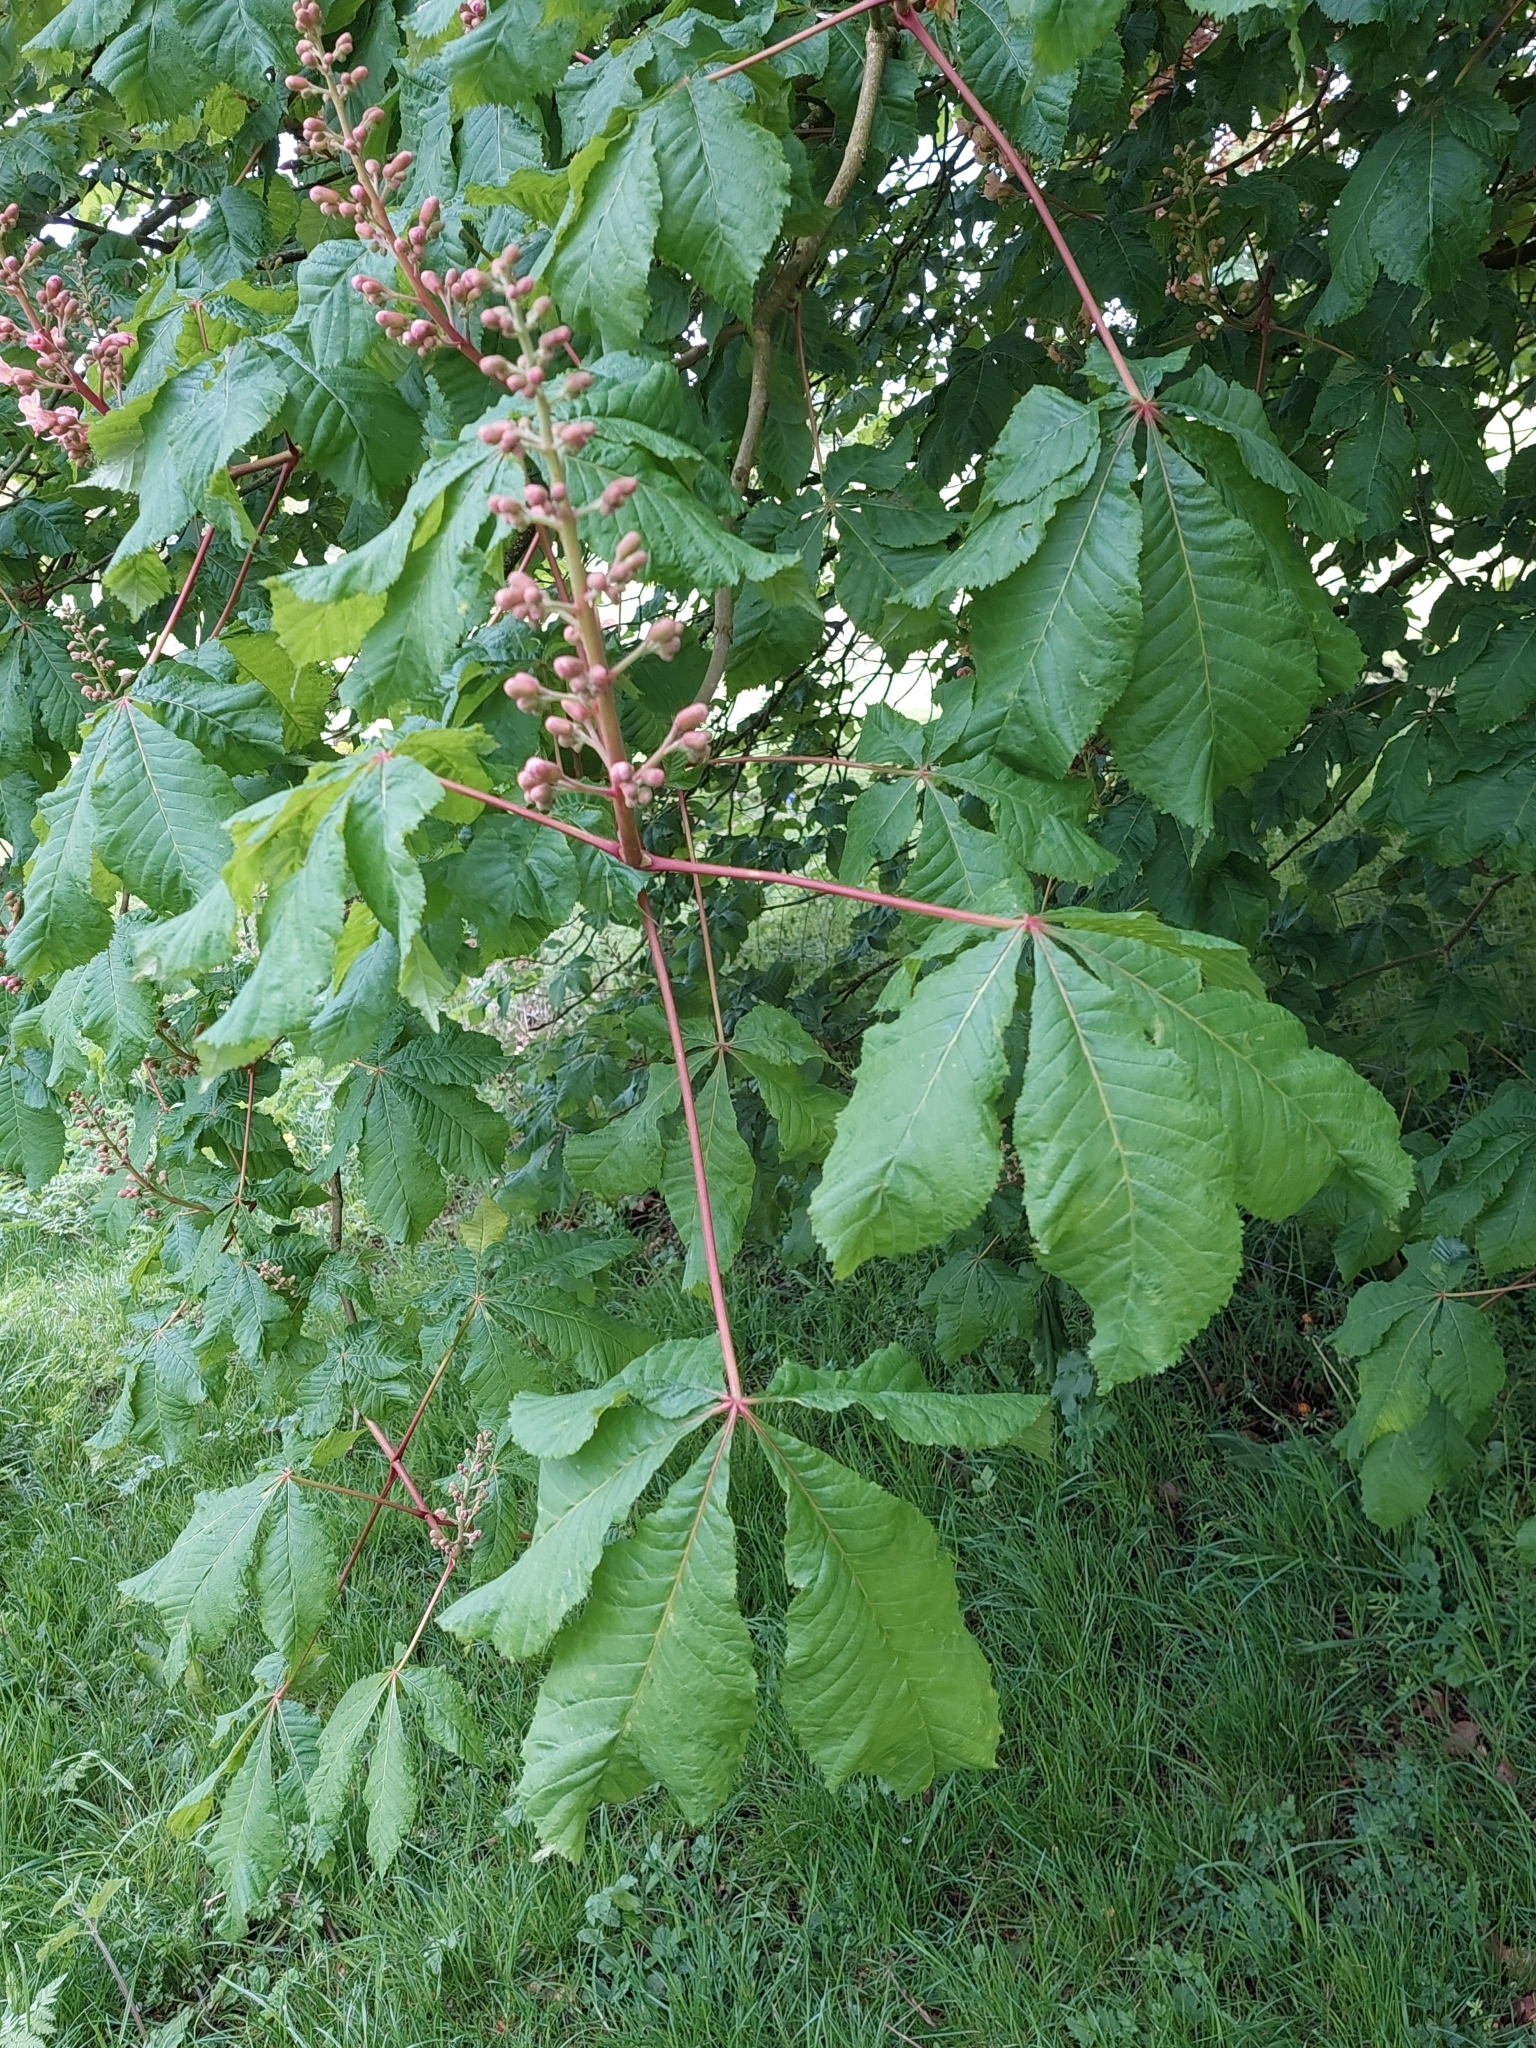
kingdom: Plantae
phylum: Tracheophyta
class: Magnoliopsida
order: Sapindales
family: Sapindaceae
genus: Aesculus
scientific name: Aesculus hippocastanum
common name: Horse-chestnut
